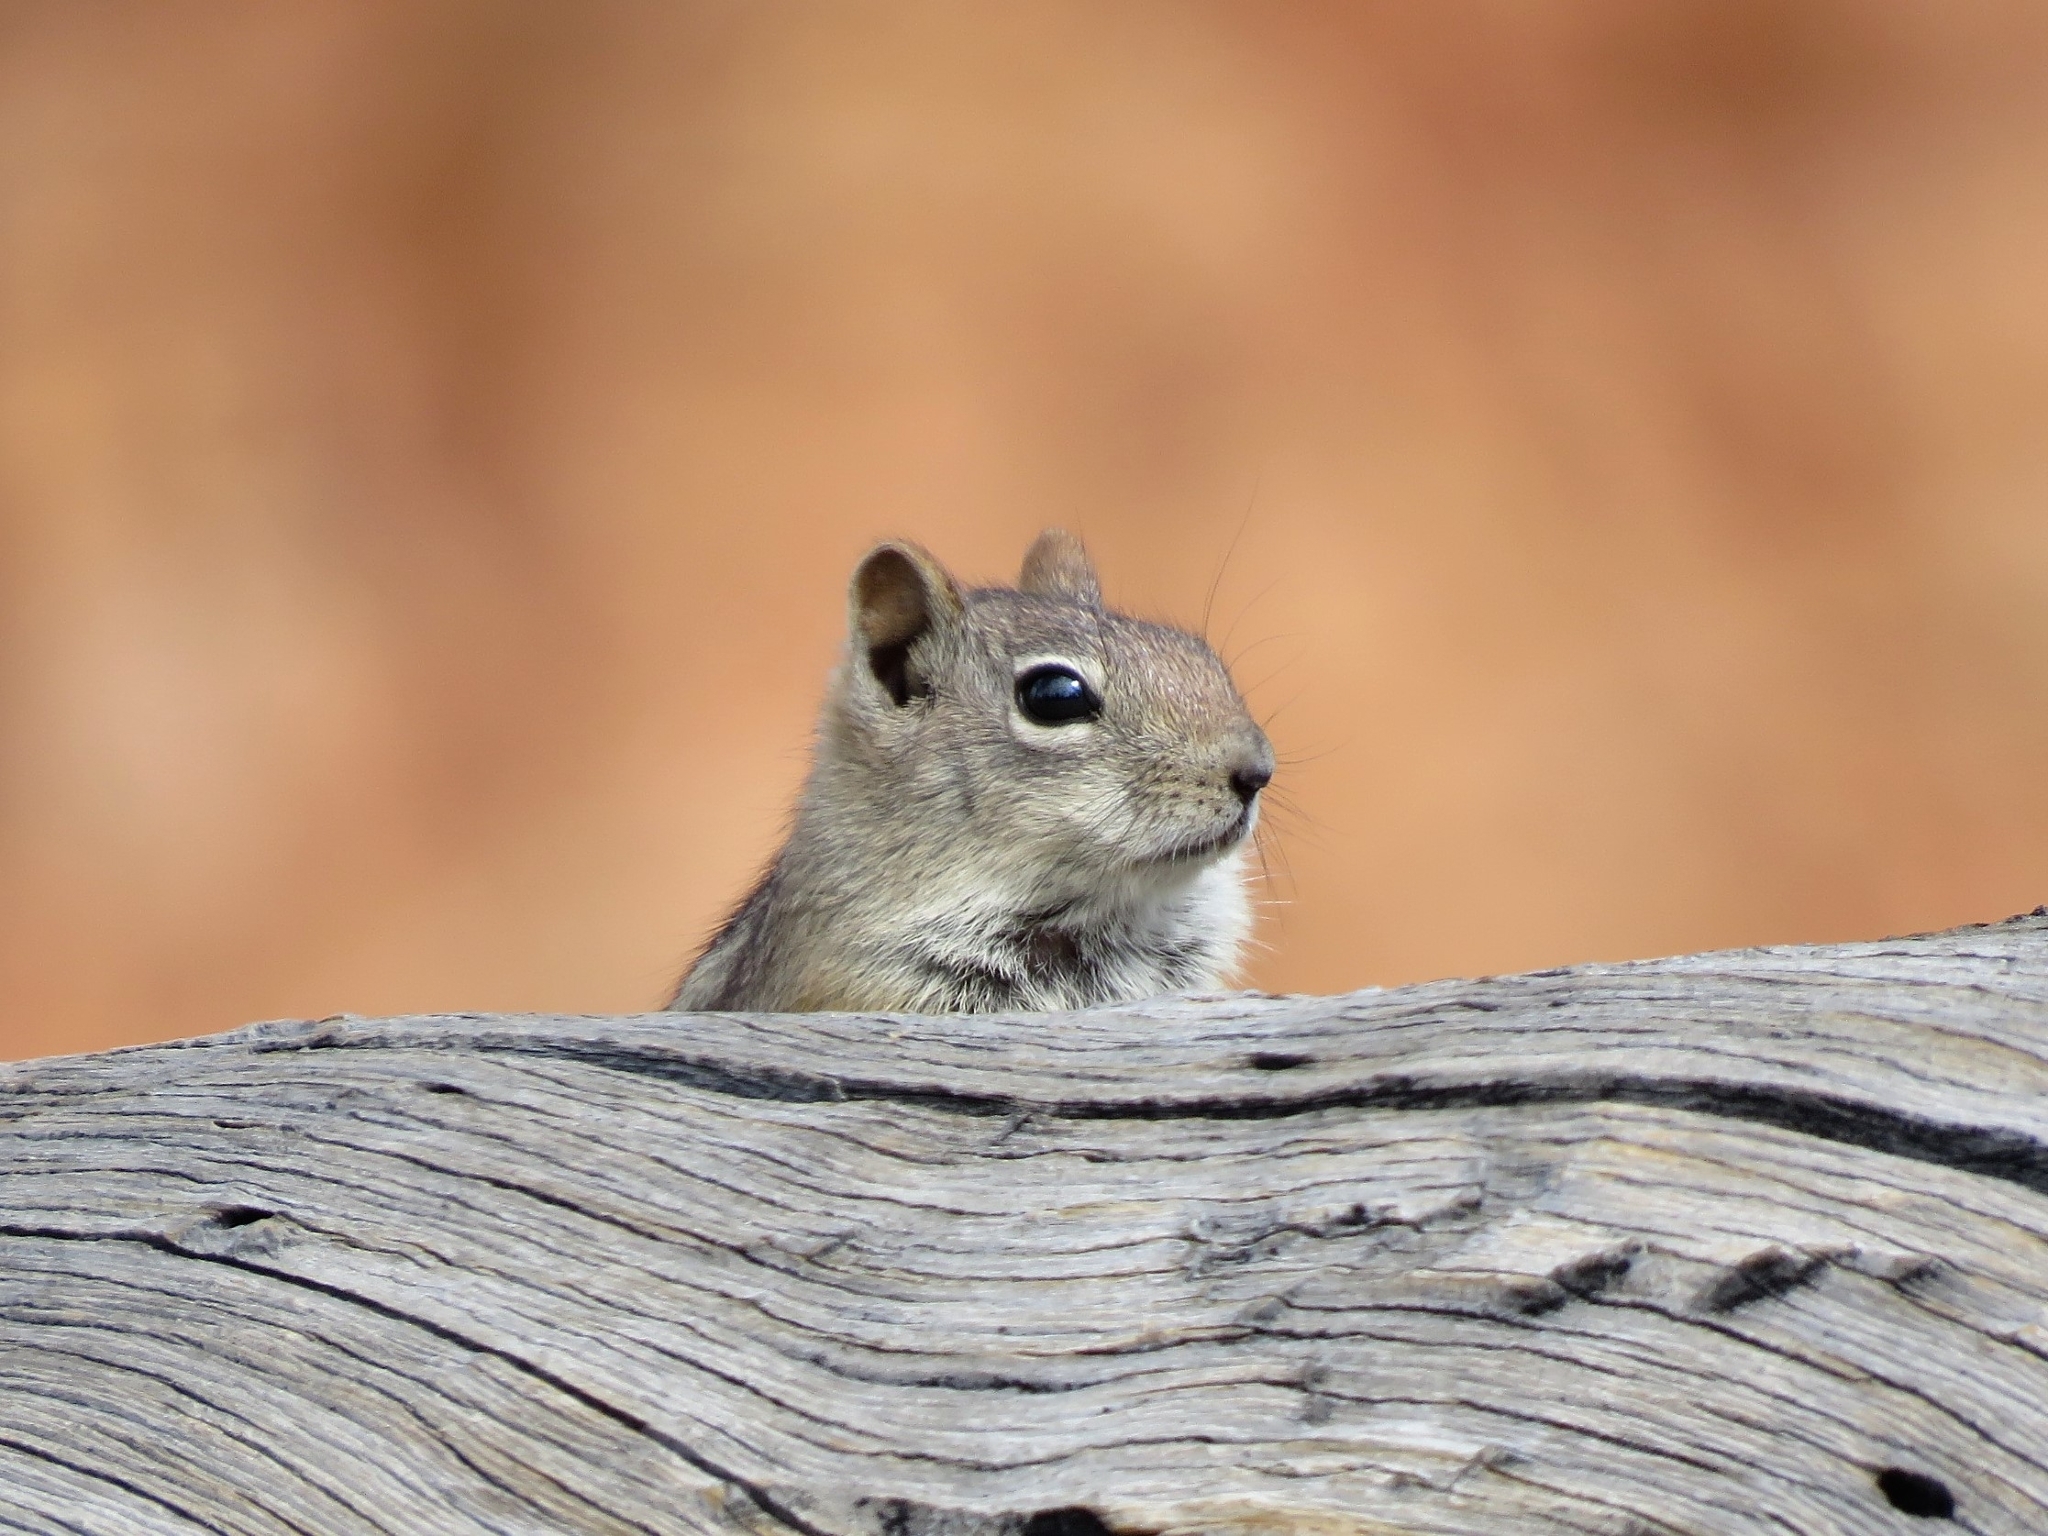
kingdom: Animalia
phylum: Chordata
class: Mammalia
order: Rodentia
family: Sciuridae
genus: Callospermophilus
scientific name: Callospermophilus lateralis
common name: Golden-mantled ground squirrel
